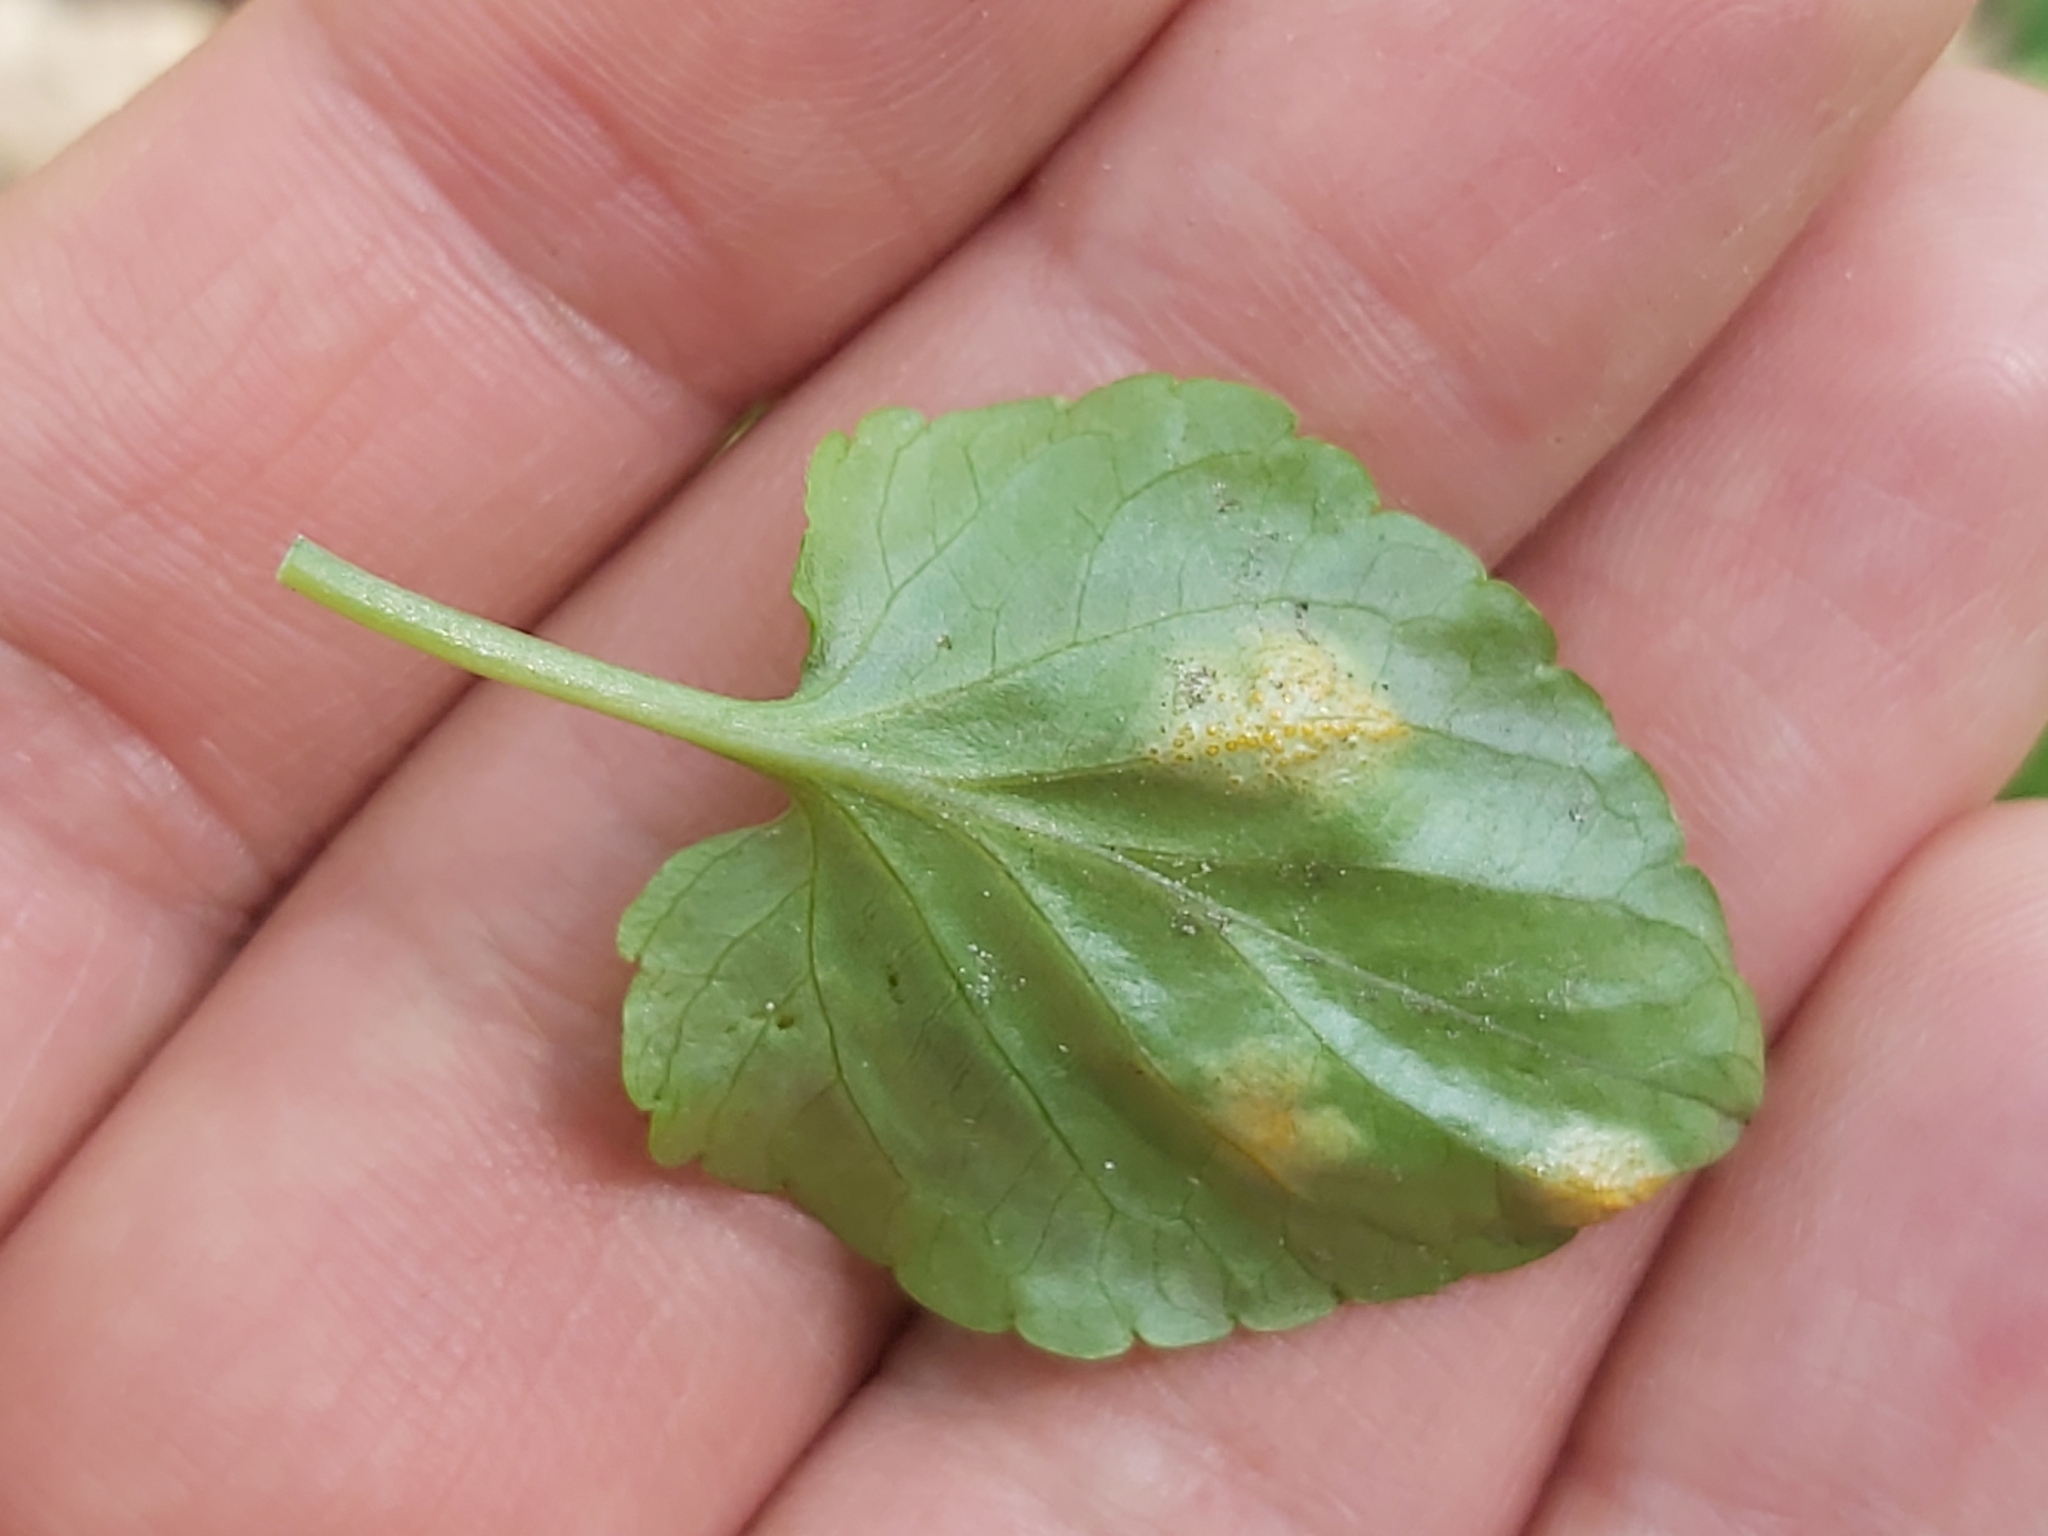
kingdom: Fungi
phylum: Basidiomycota
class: Pucciniomycetes
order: Pucciniales
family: Pucciniaceae
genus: Puccinia
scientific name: Puccinia violae
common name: Violet rust
